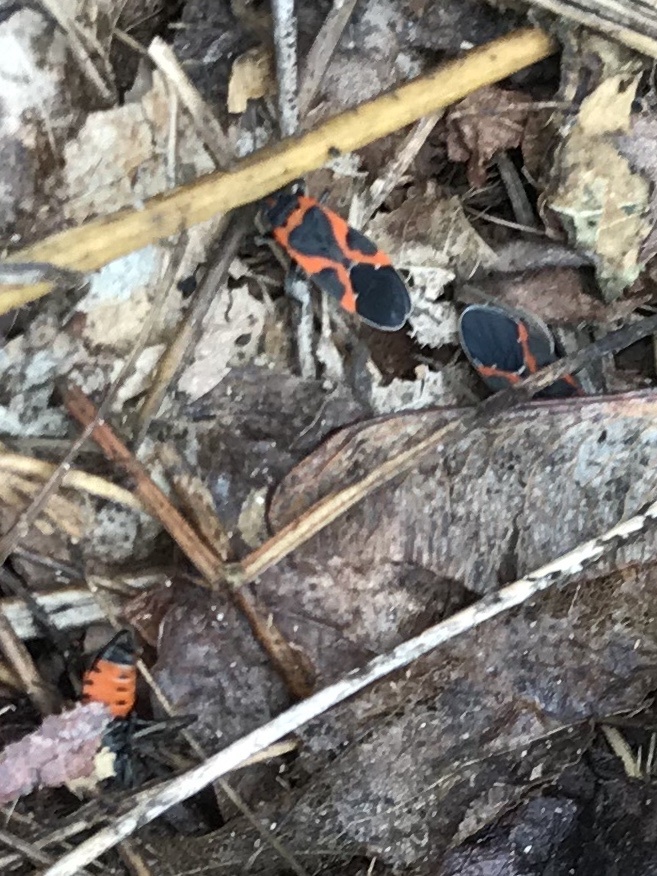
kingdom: Animalia
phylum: Arthropoda
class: Insecta
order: Hemiptera
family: Lygaeidae
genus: Lygaeus
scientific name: Lygaeus kalmii
